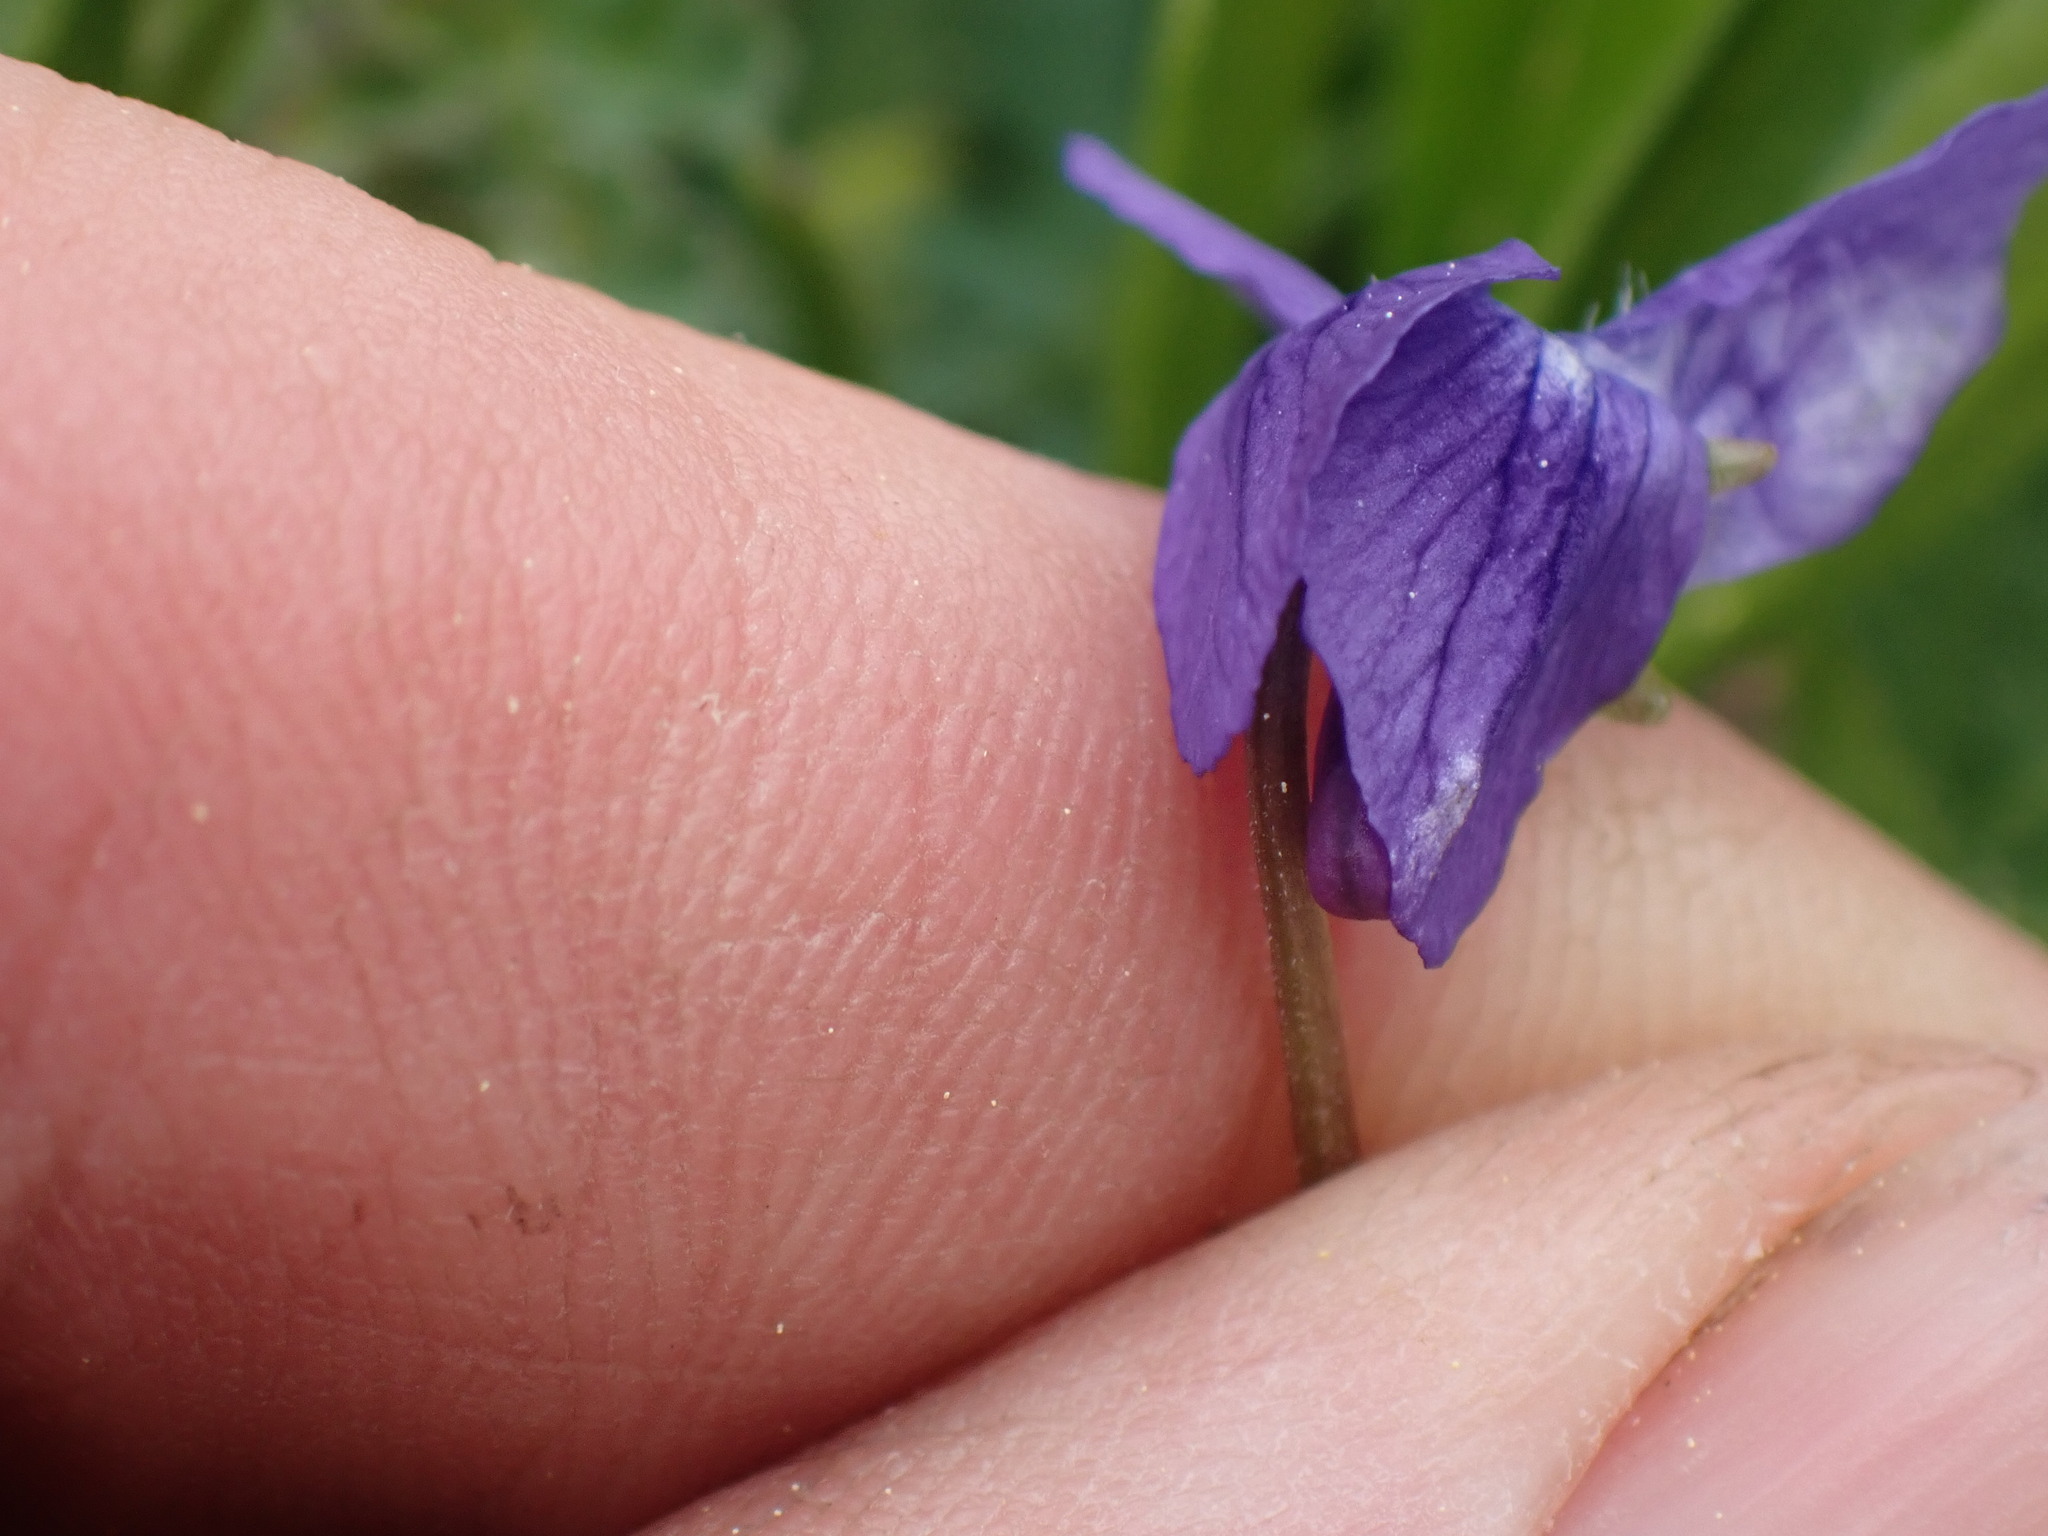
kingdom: Plantae
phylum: Tracheophyta
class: Magnoliopsida
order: Malpighiales
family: Violaceae
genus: Viola
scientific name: Viola adunca
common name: Sand violet
